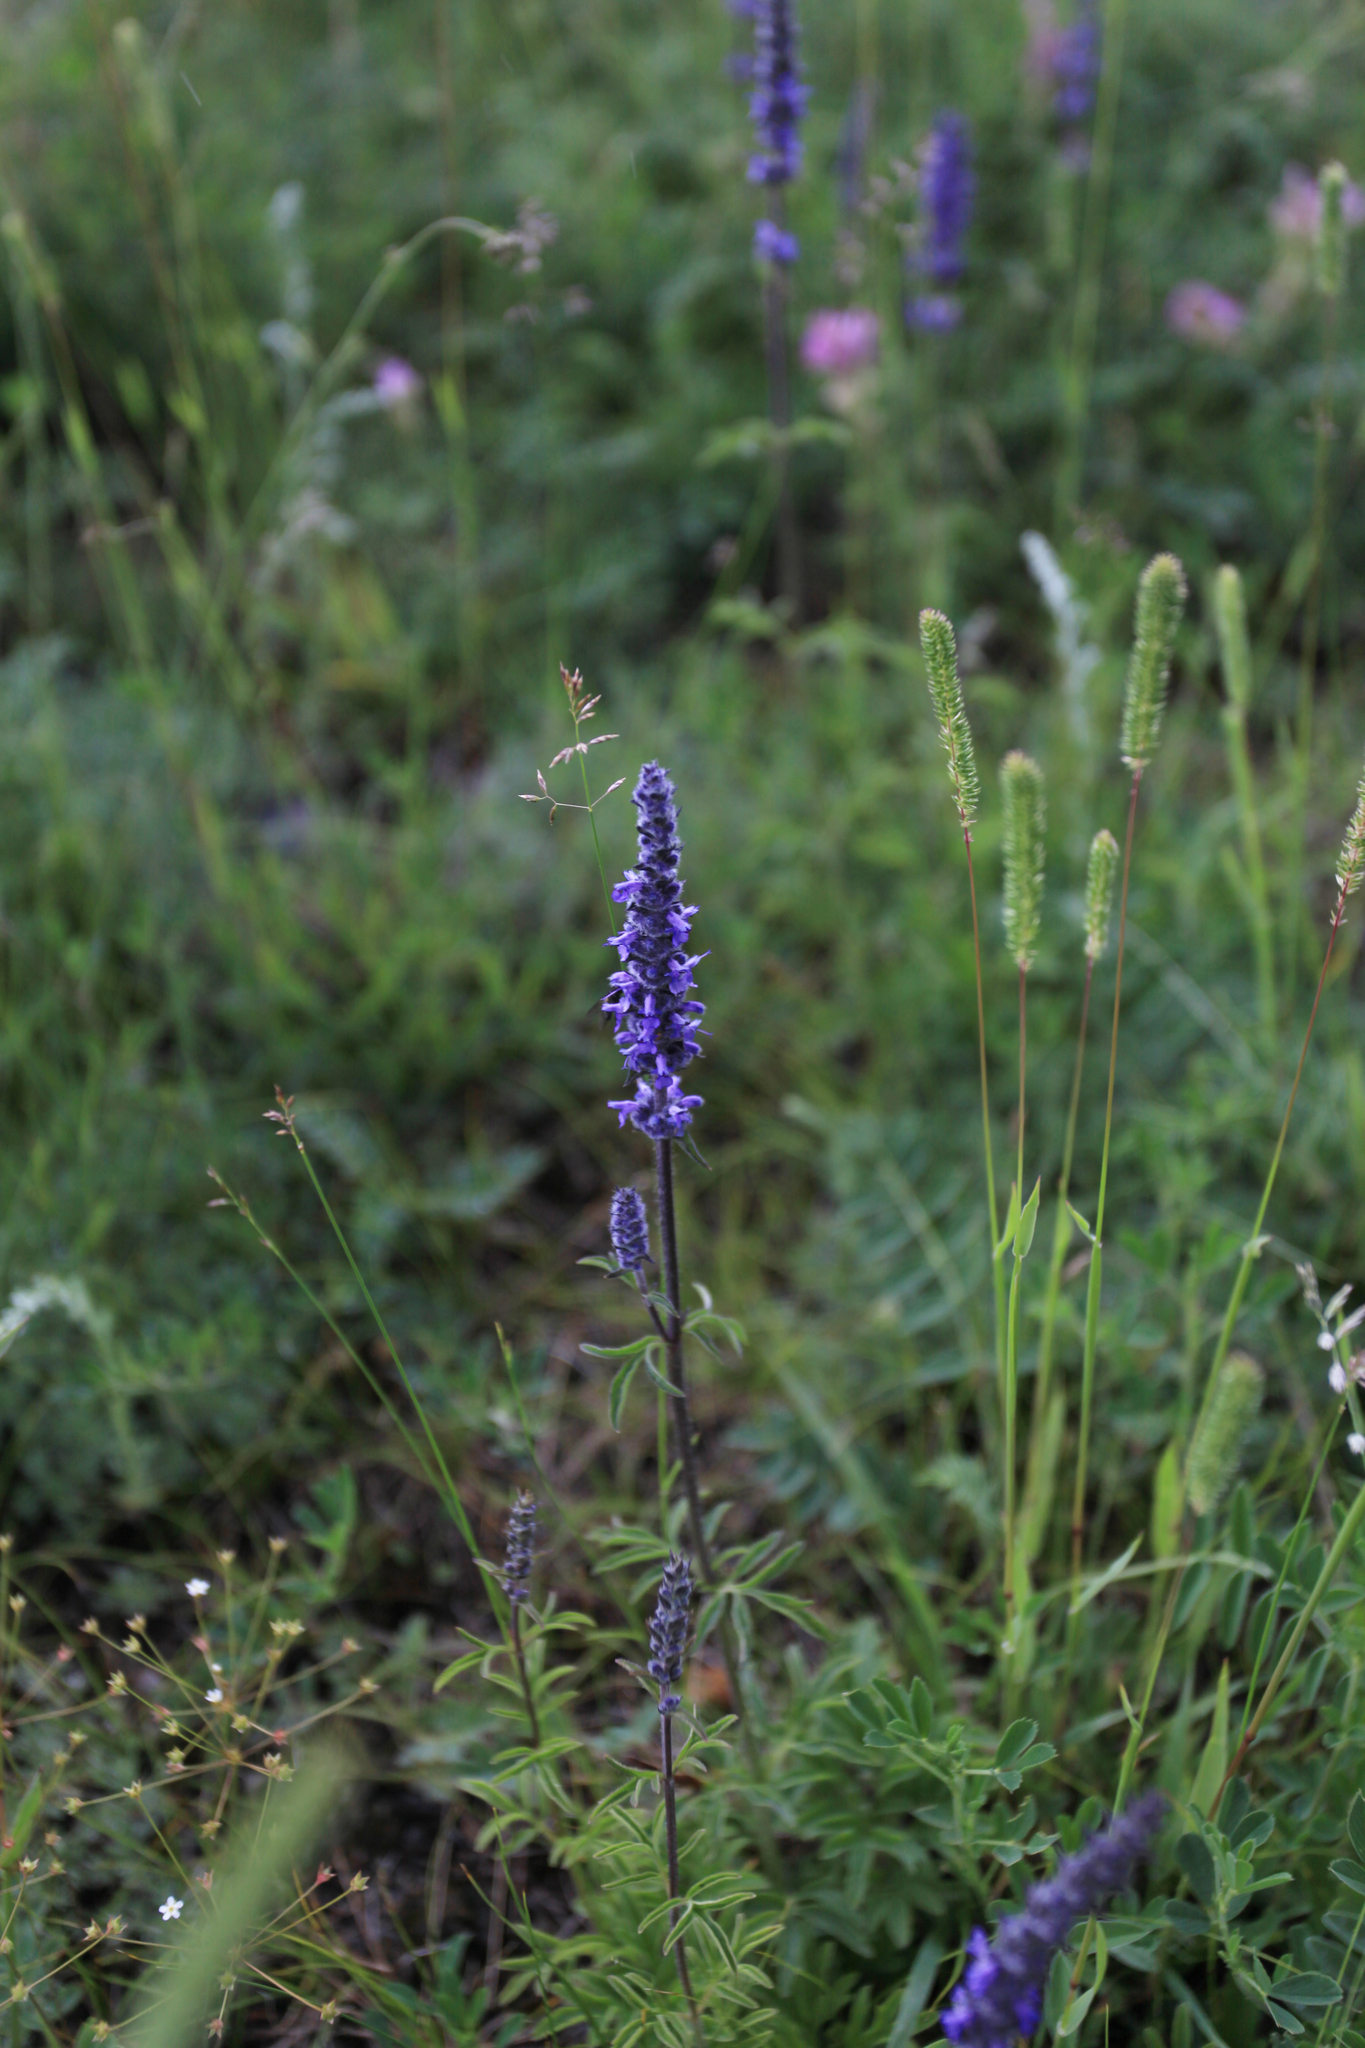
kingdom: Plantae
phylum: Tracheophyta
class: Magnoliopsida
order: Lamiales
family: Lamiaceae
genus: Nepeta
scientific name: Nepeta multifida
